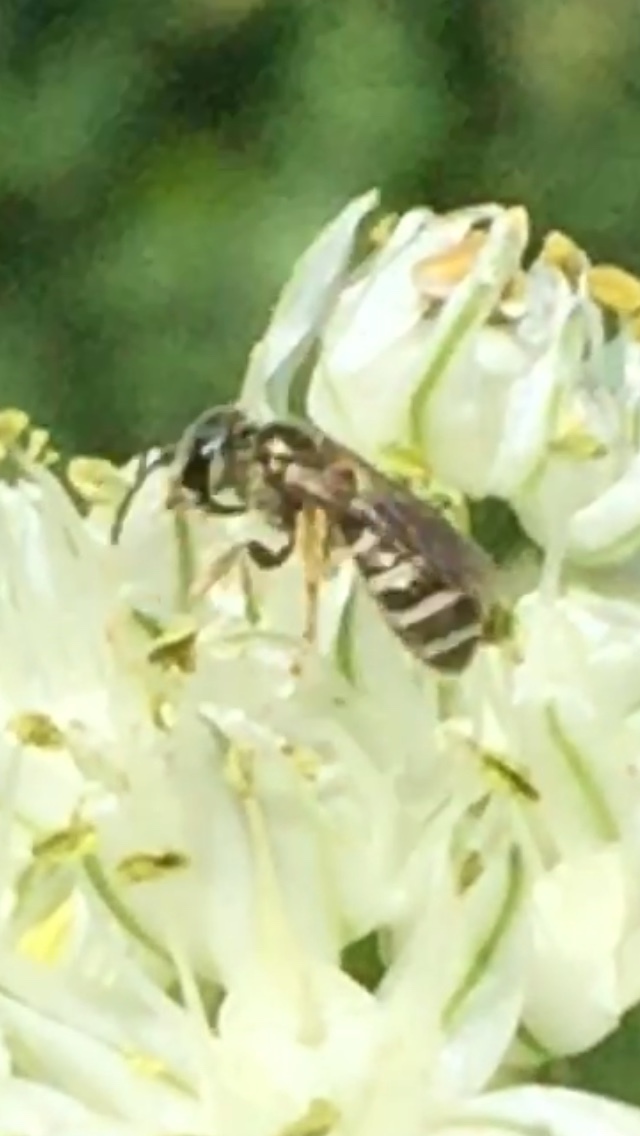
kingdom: Animalia
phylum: Arthropoda
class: Insecta
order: Hymenoptera
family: Halictidae
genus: Halictus
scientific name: Halictus tripartitus
